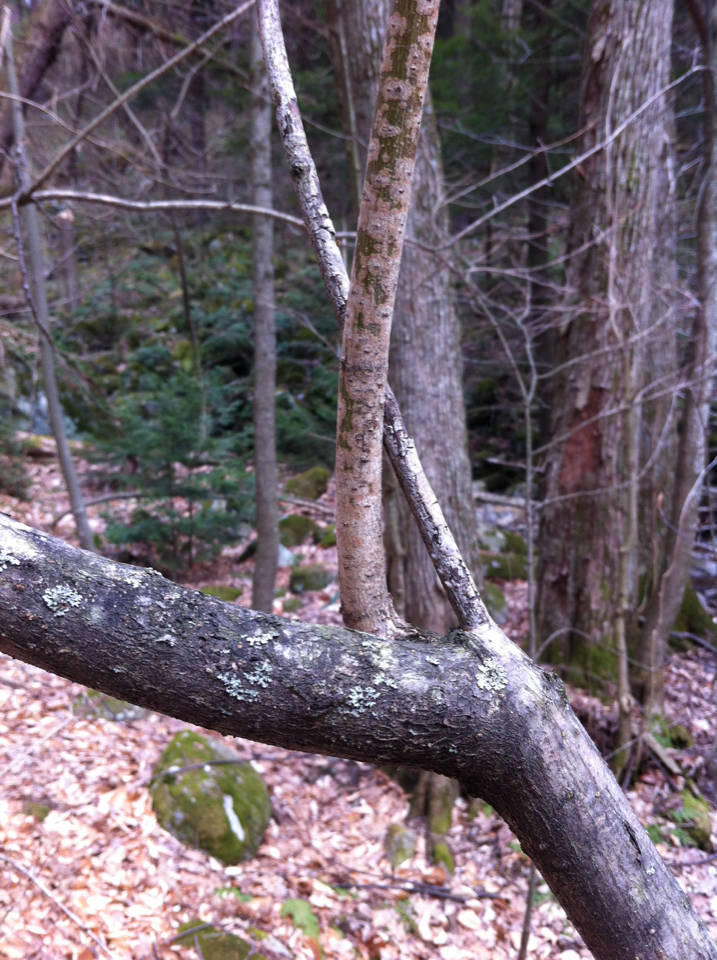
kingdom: Plantae
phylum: Tracheophyta
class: Magnoliopsida
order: Sapindales
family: Sapindaceae
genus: Acer
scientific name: Acer spicatum
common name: Mountain maple
